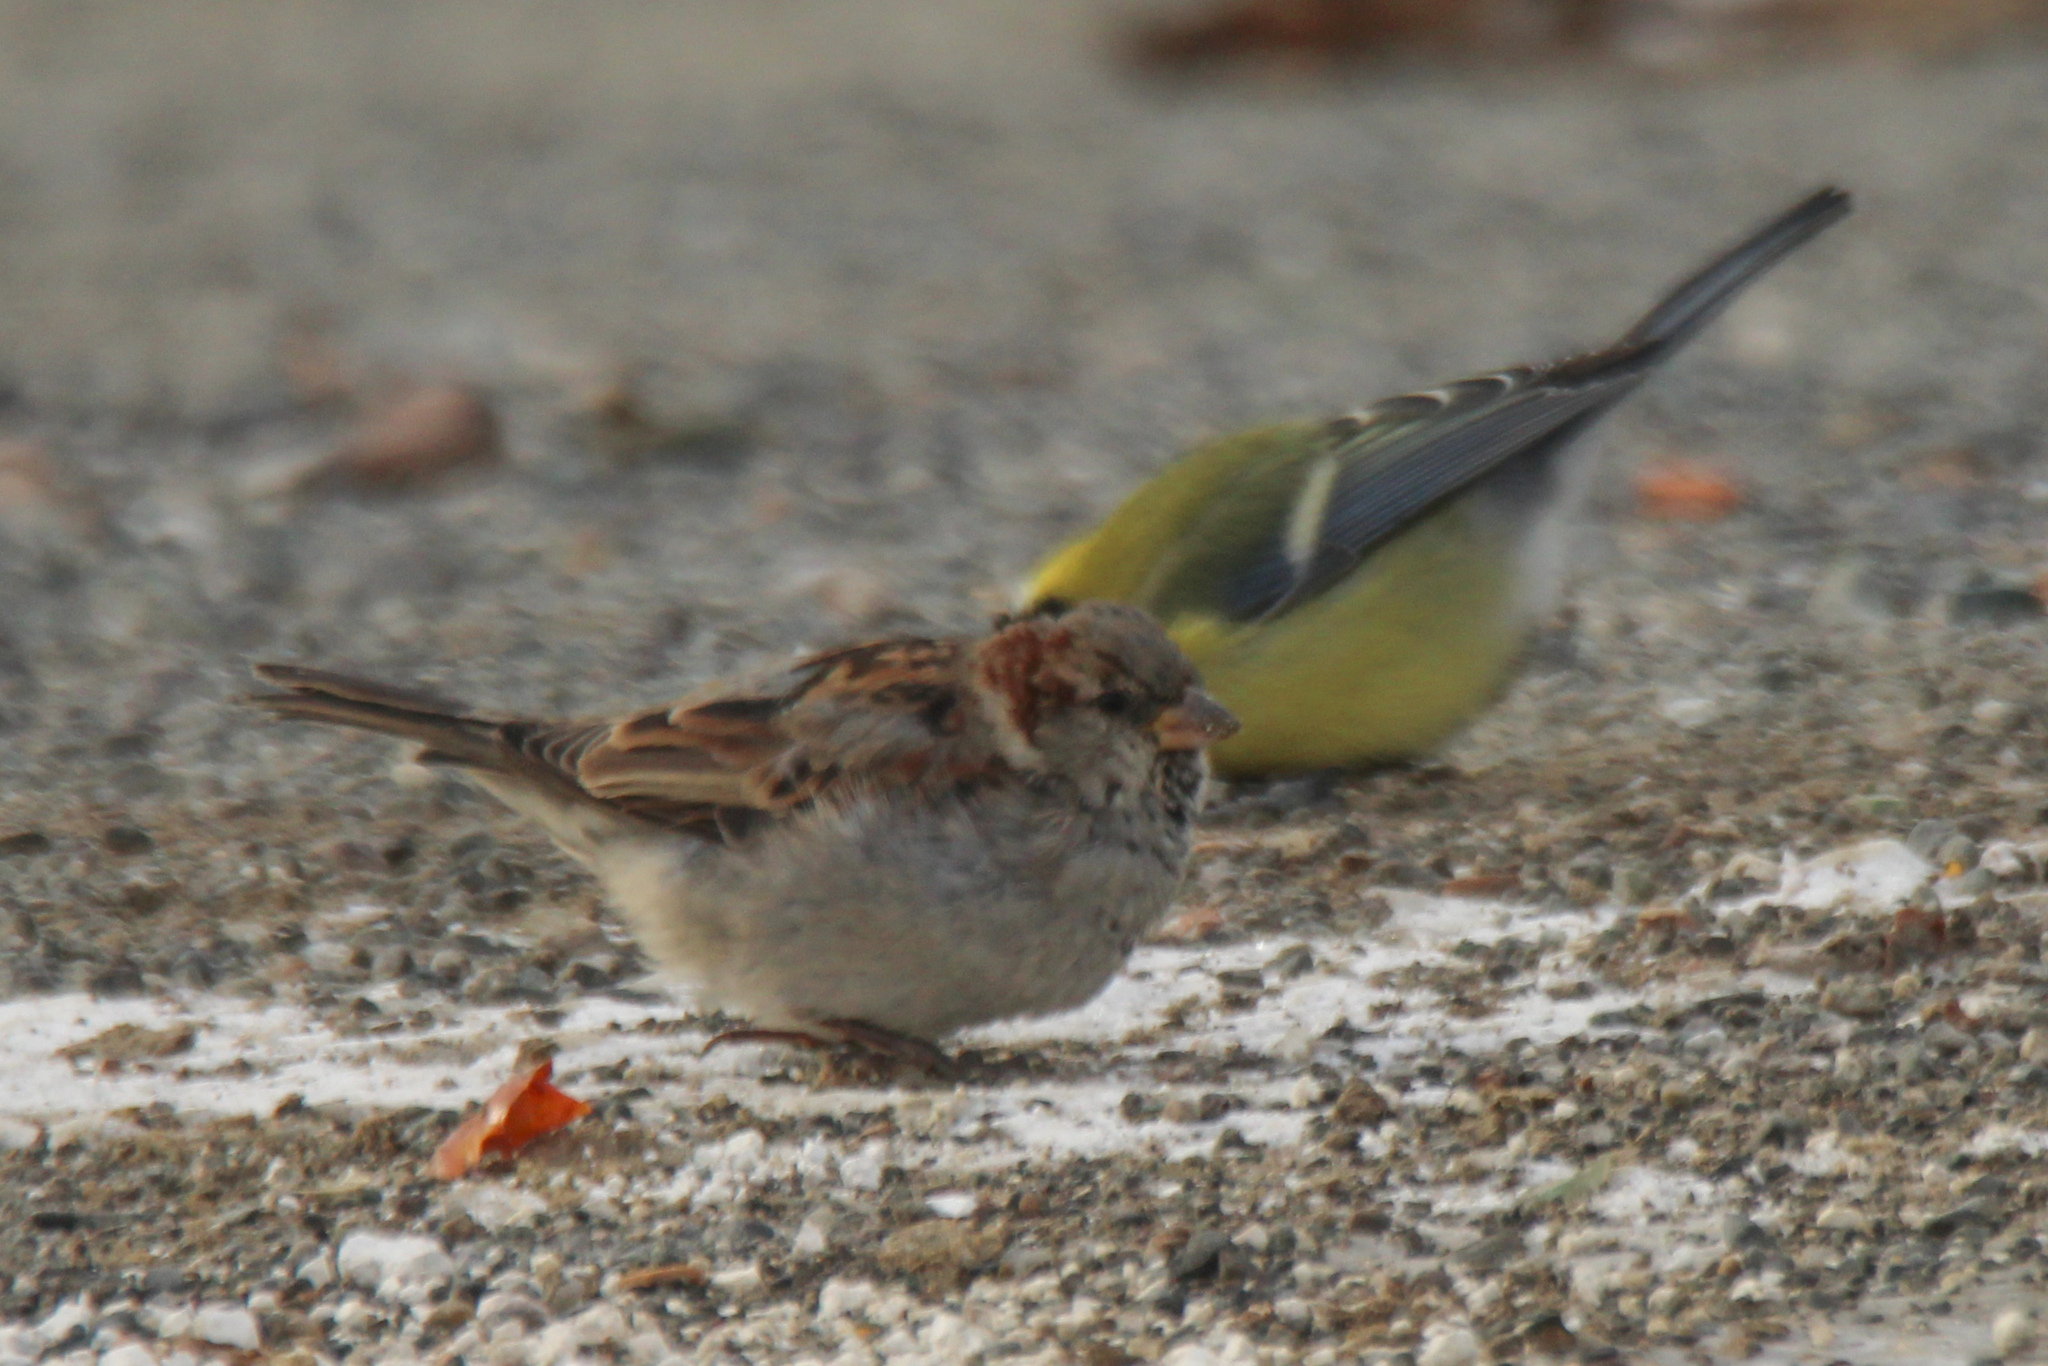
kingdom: Animalia
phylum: Chordata
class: Aves
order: Passeriformes
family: Passeridae
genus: Passer
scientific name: Passer domesticus
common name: House sparrow
